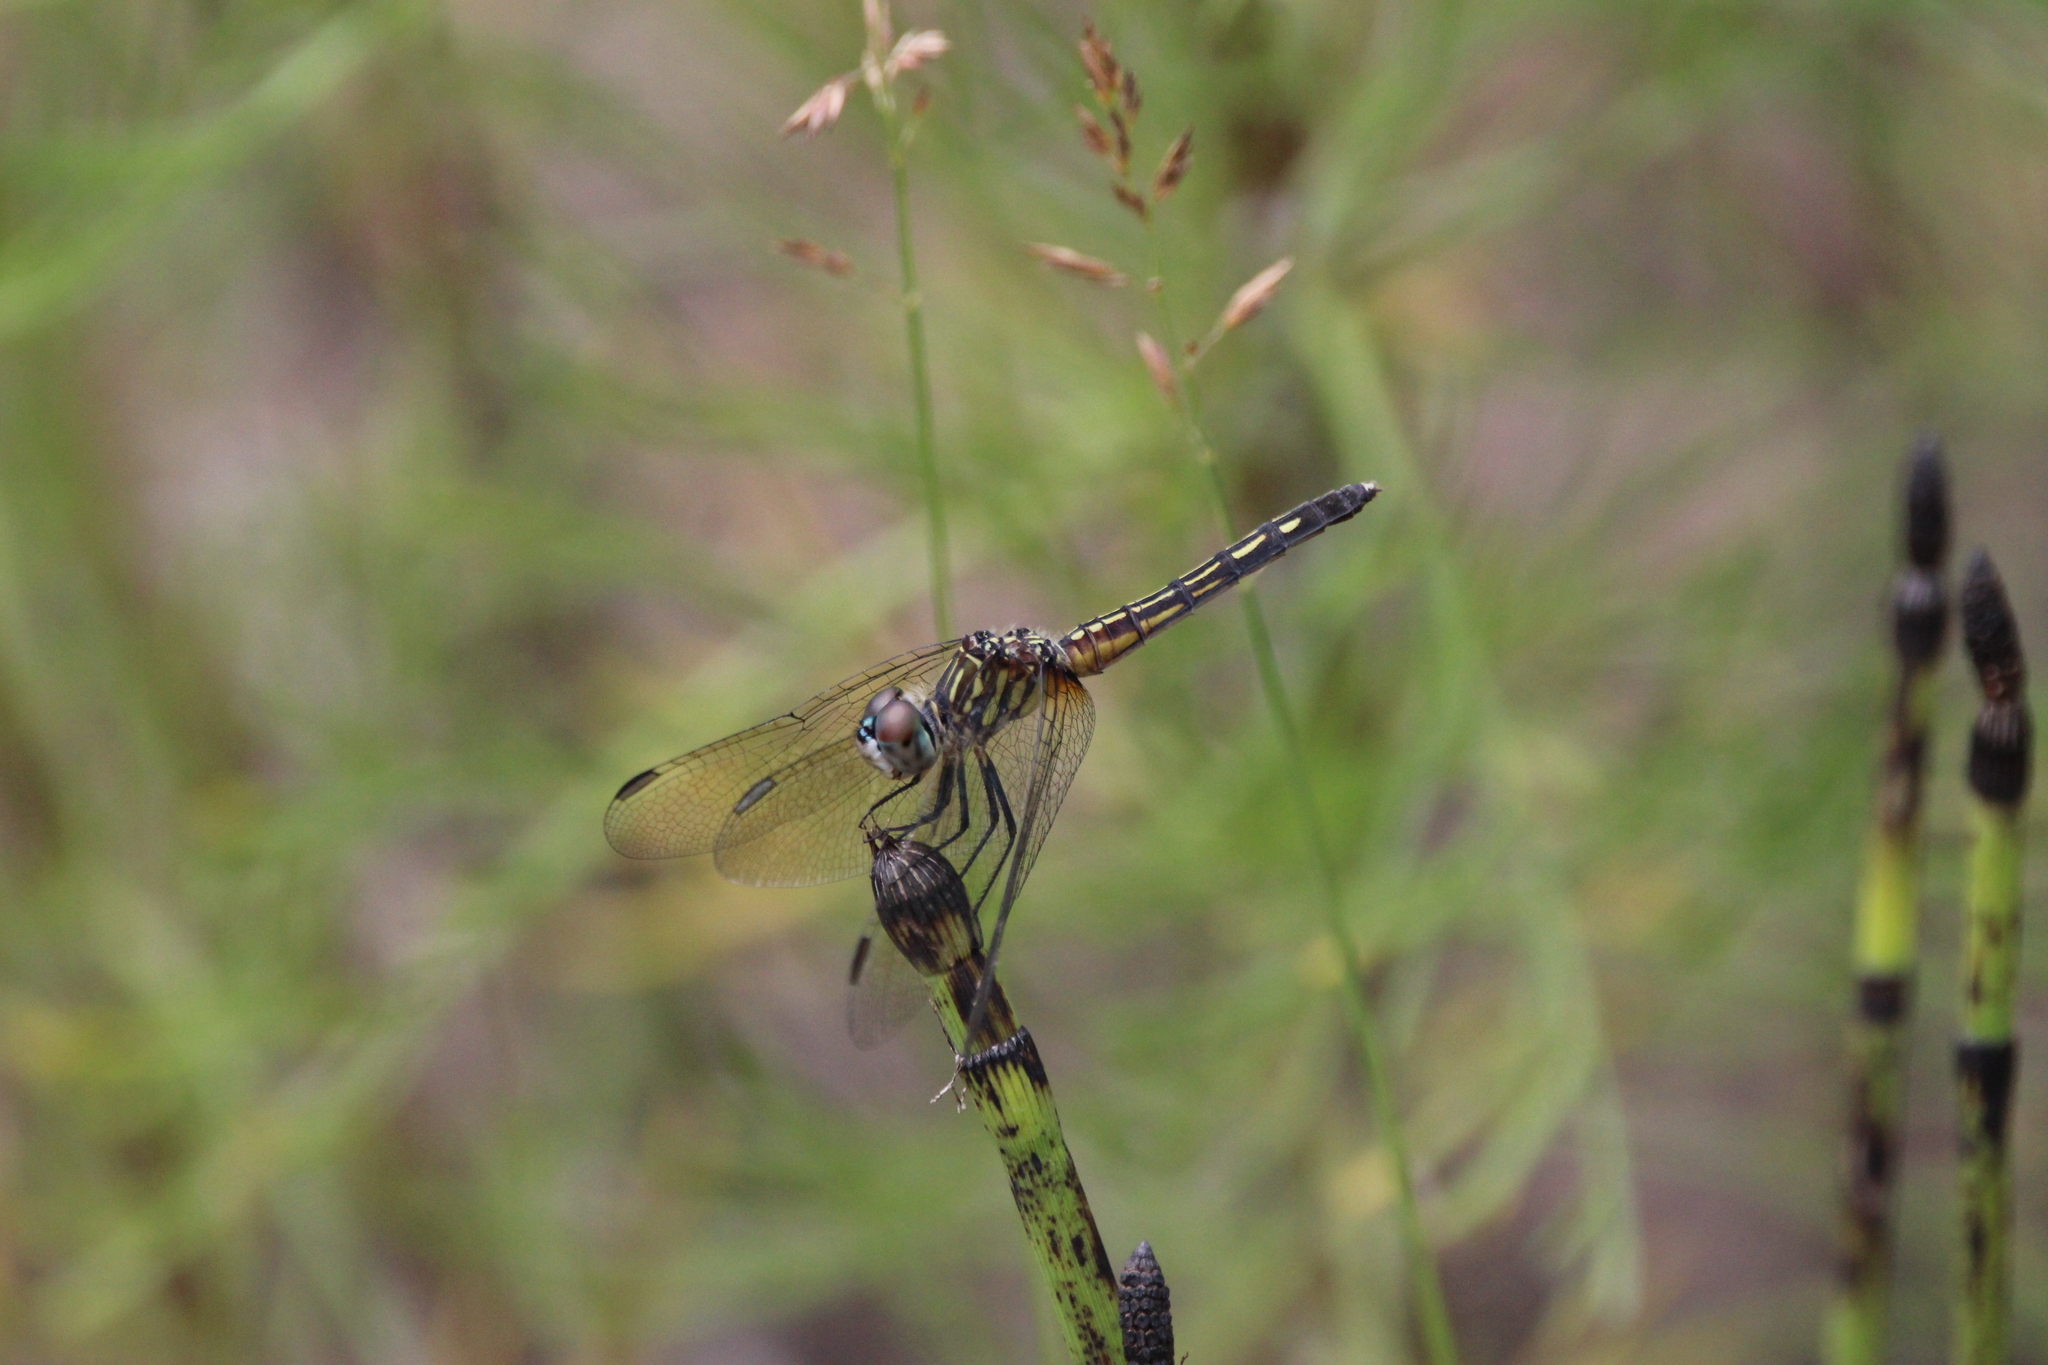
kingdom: Animalia
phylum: Arthropoda
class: Insecta
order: Odonata
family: Libellulidae
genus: Pachydiplax
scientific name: Pachydiplax longipennis
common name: Blue dasher
